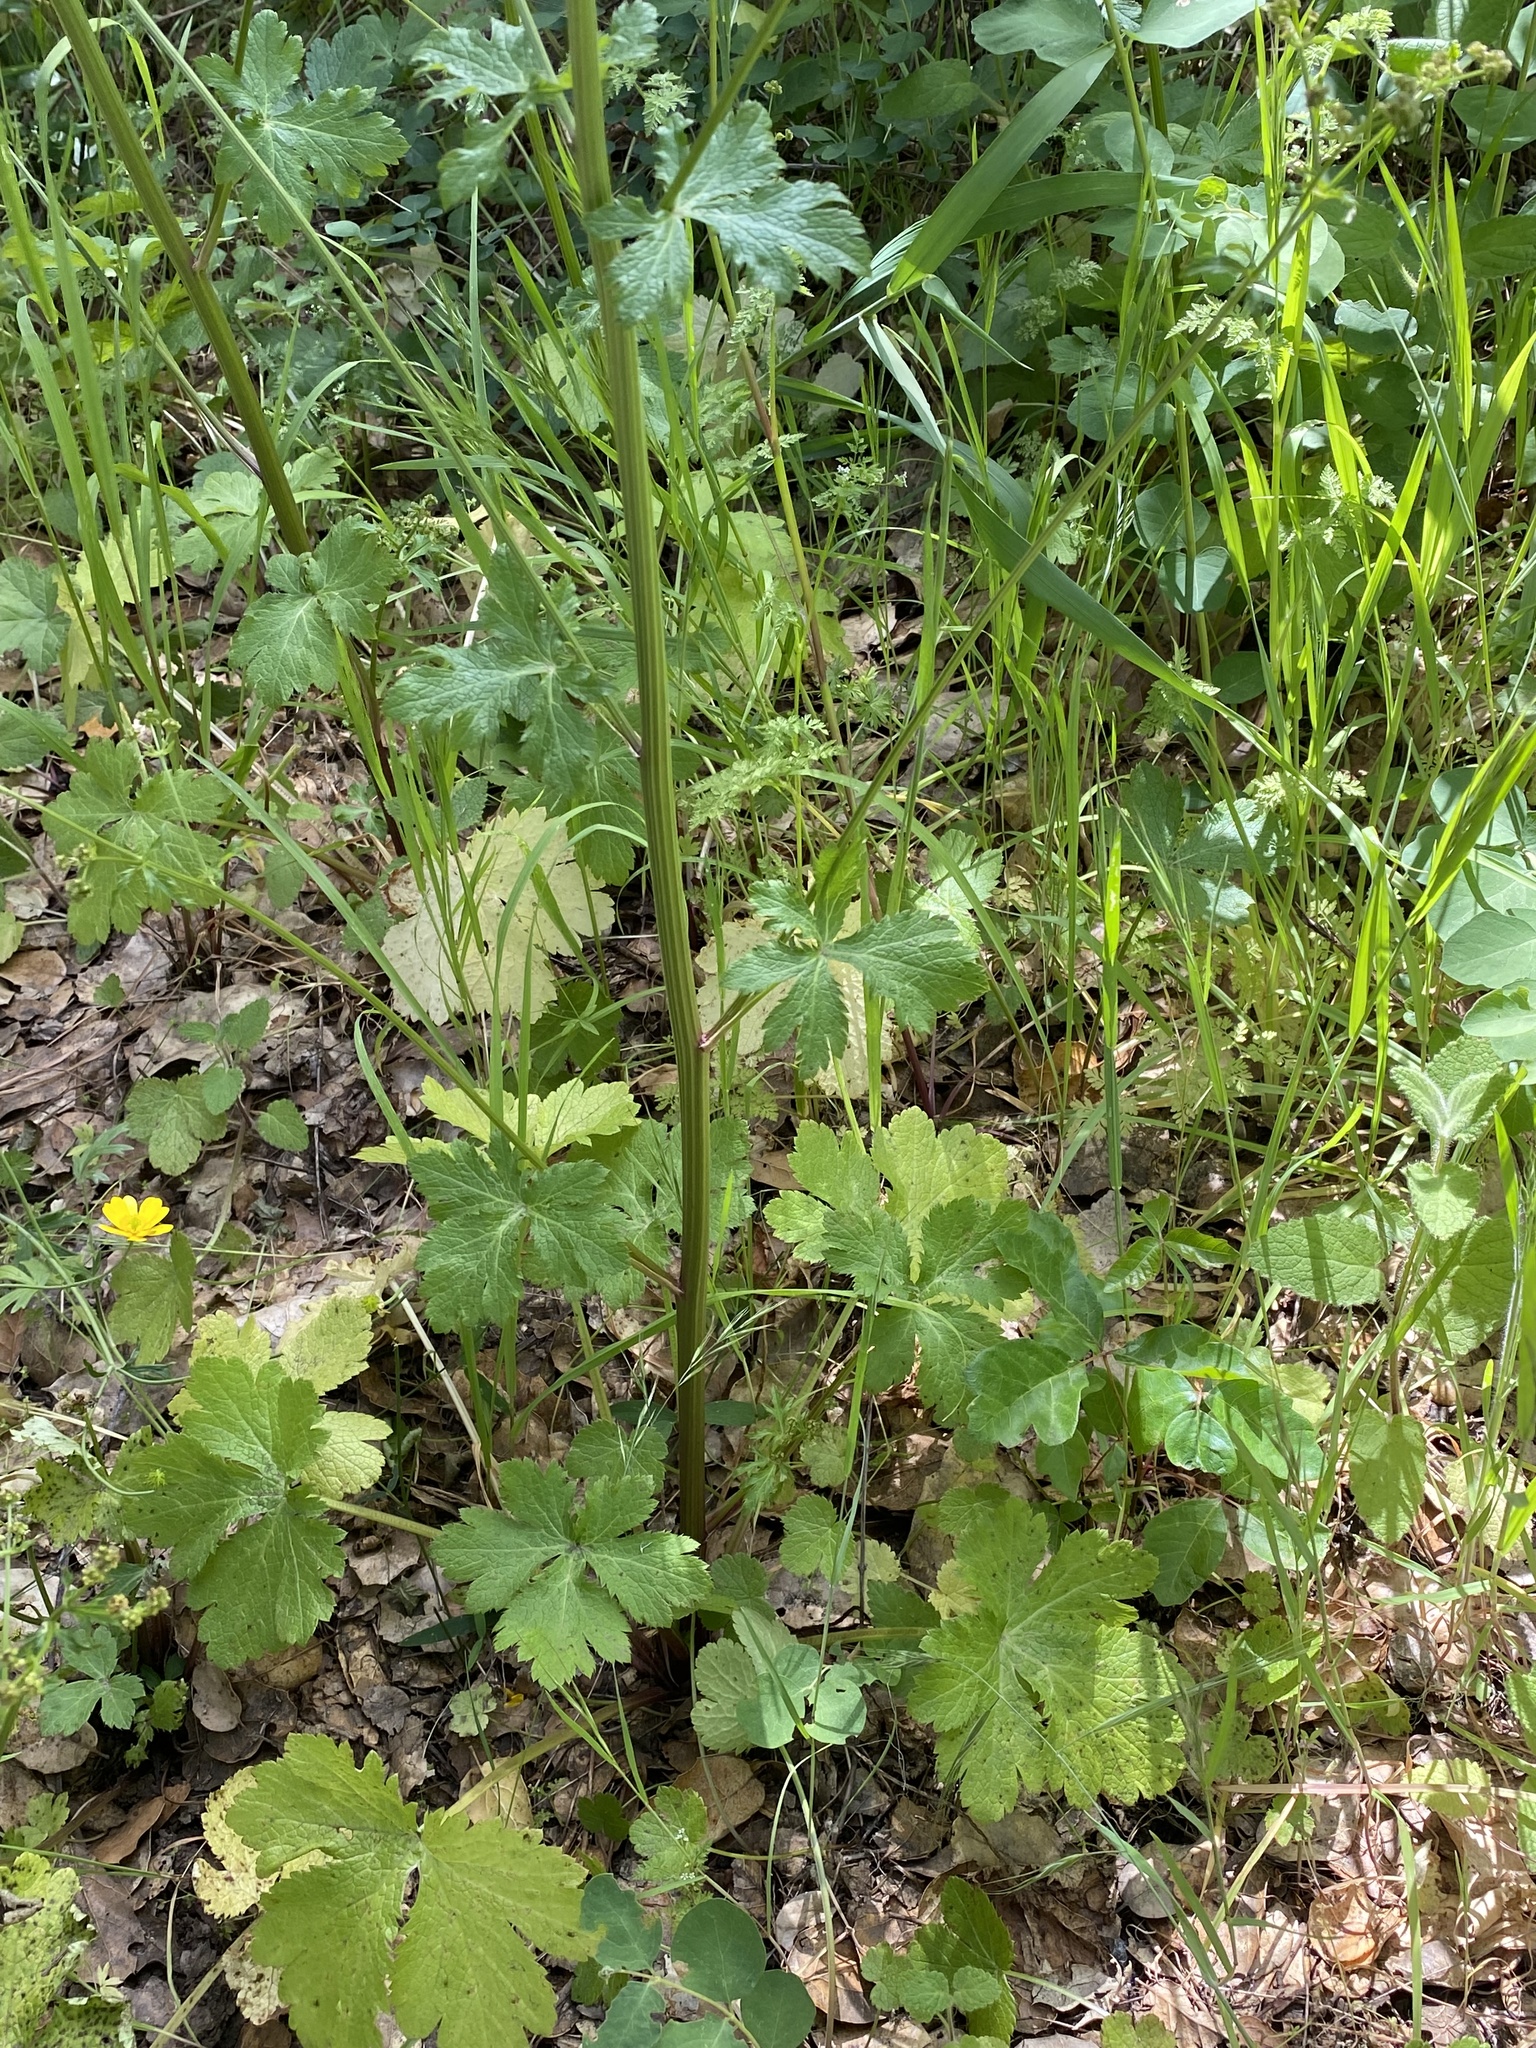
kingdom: Plantae
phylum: Tracheophyta
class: Magnoliopsida
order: Apiales
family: Apiaceae
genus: Sanicula
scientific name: Sanicula crassicaulis
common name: Western snakeroot
